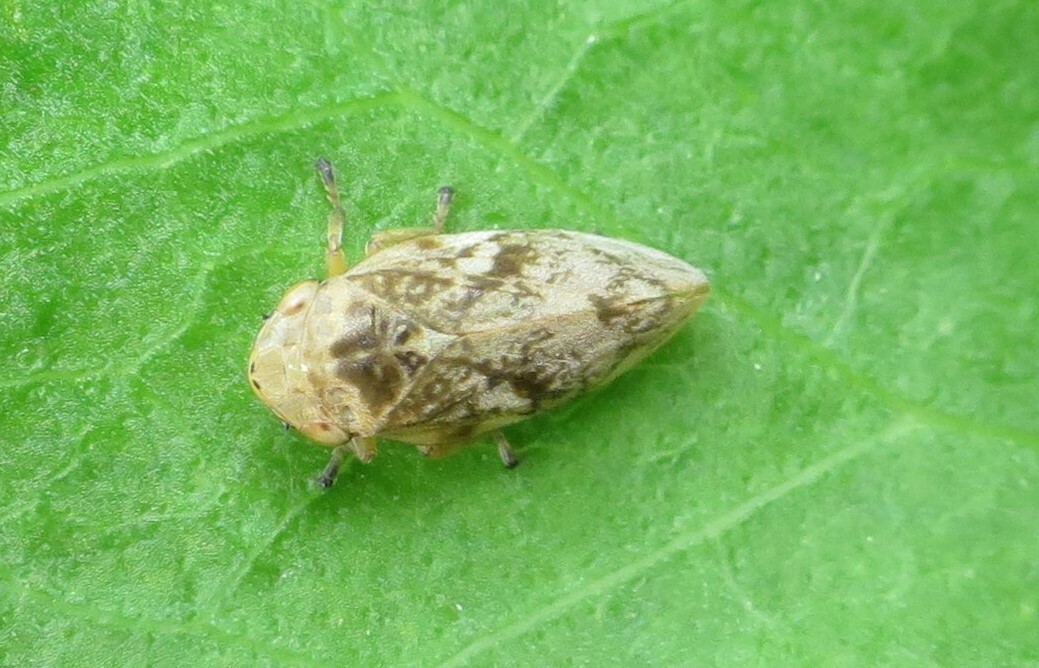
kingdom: Animalia
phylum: Arthropoda
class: Insecta
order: Hemiptera
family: Aphrophoridae
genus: Philaenus
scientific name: Philaenus spumarius
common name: Meadow spittlebug
